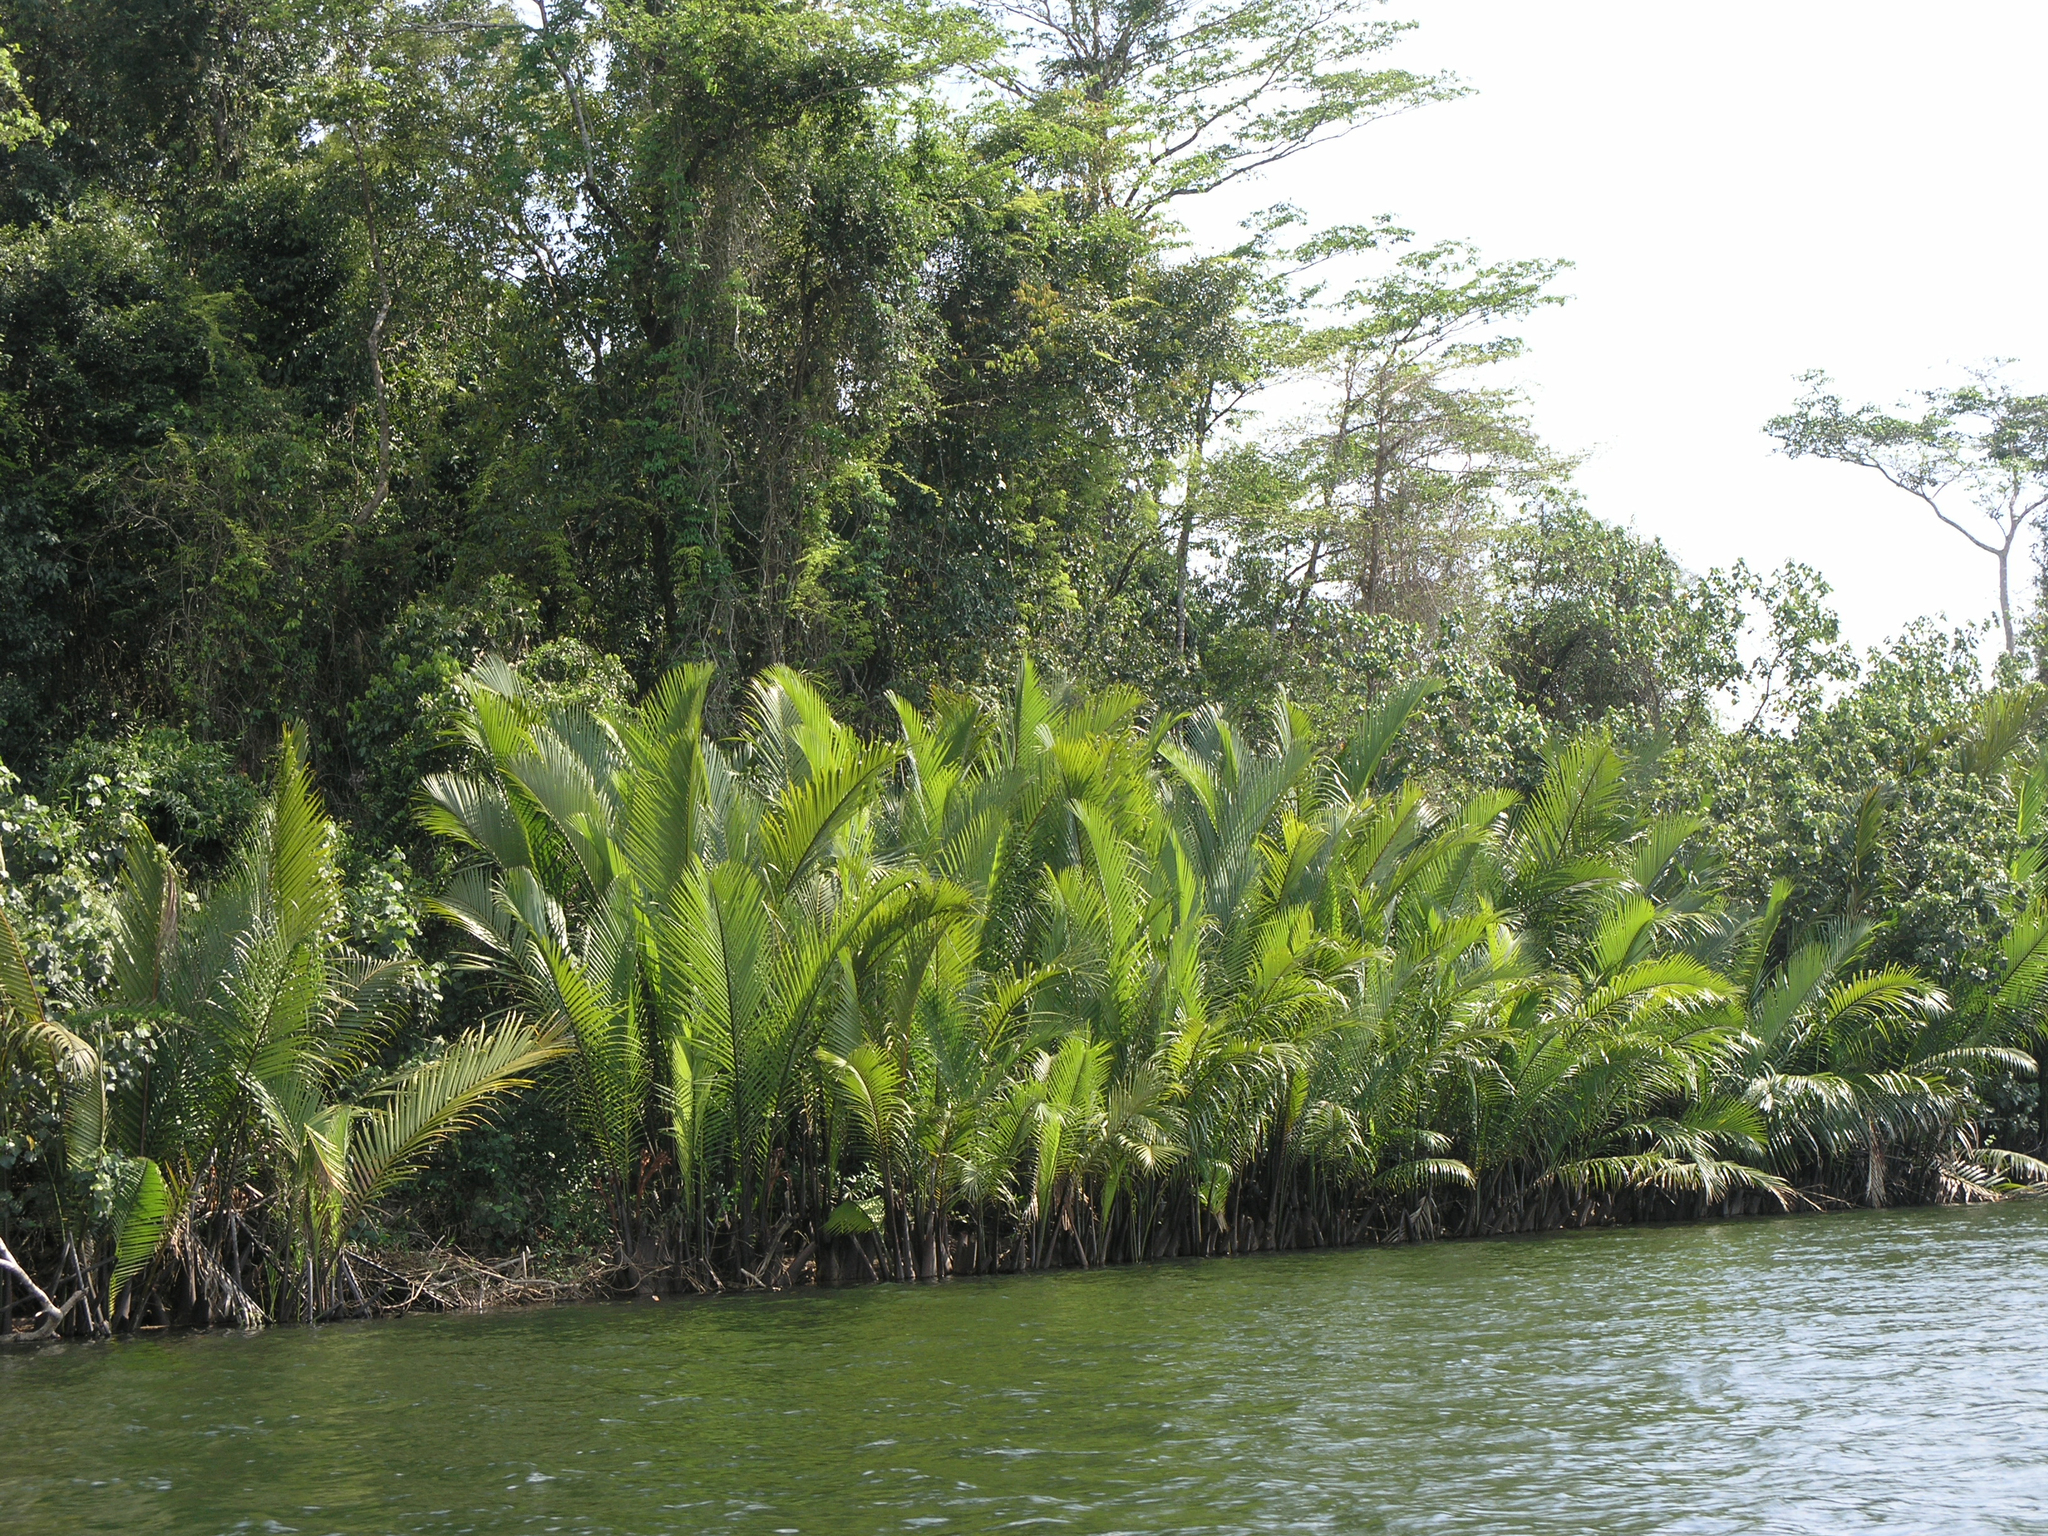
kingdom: Plantae
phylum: Tracheophyta
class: Liliopsida
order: Arecales
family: Arecaceae
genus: Nypa
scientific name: Nypa fruticans
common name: Mangrove palm
